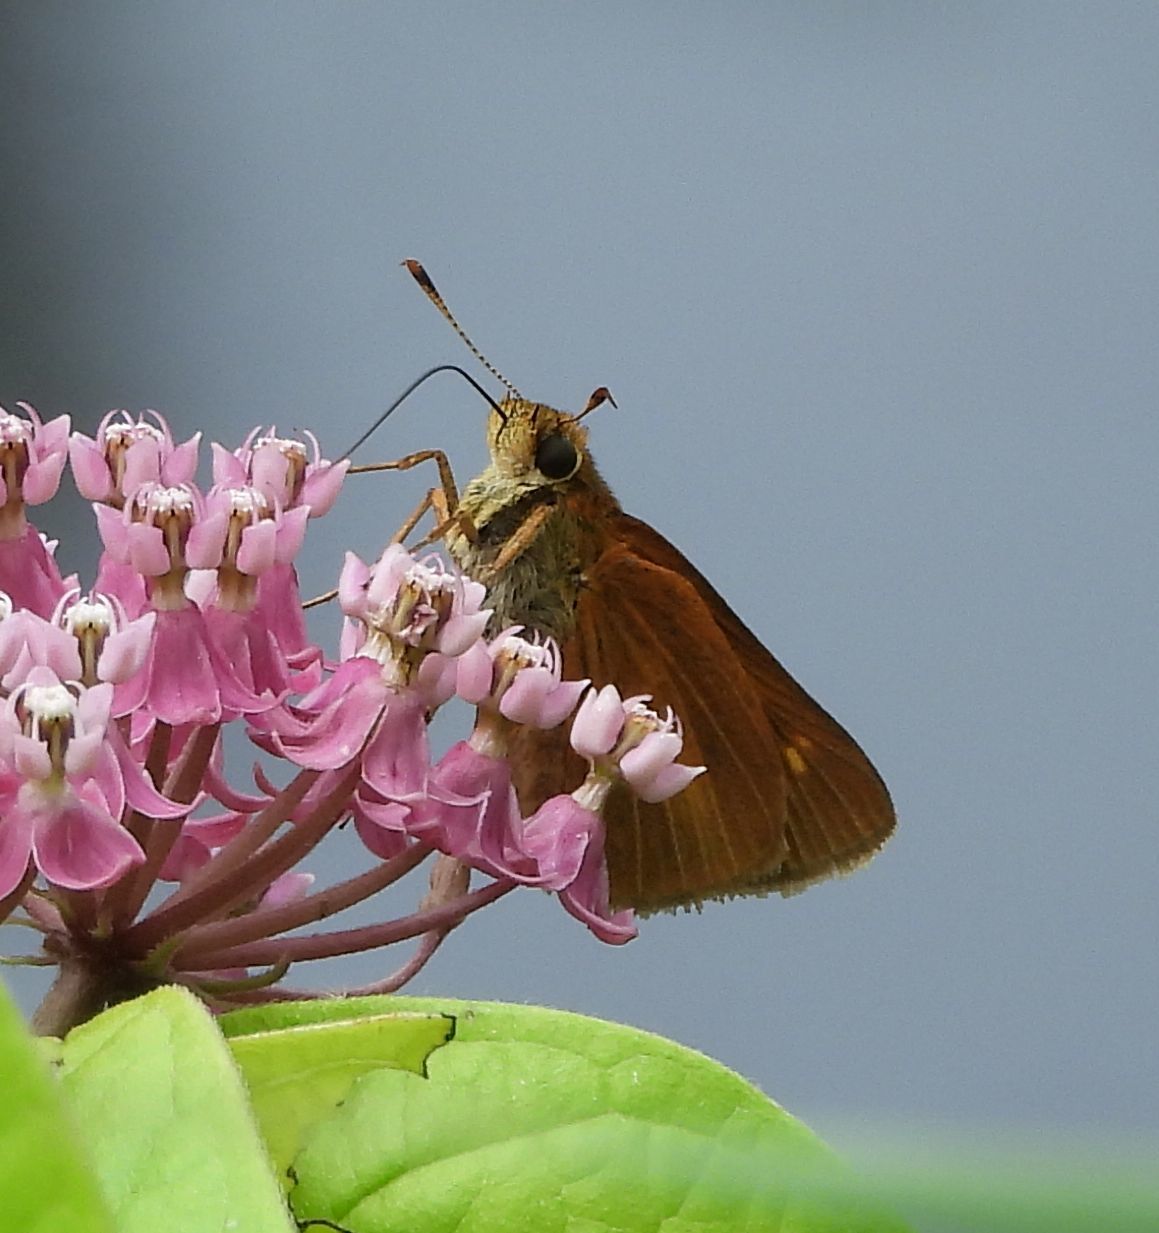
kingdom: Animalia
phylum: Arthropoda
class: Insecta
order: Lepidoptera
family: Hesperiidae
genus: Euphyes
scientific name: Euphyes dion
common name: Dion skipper
